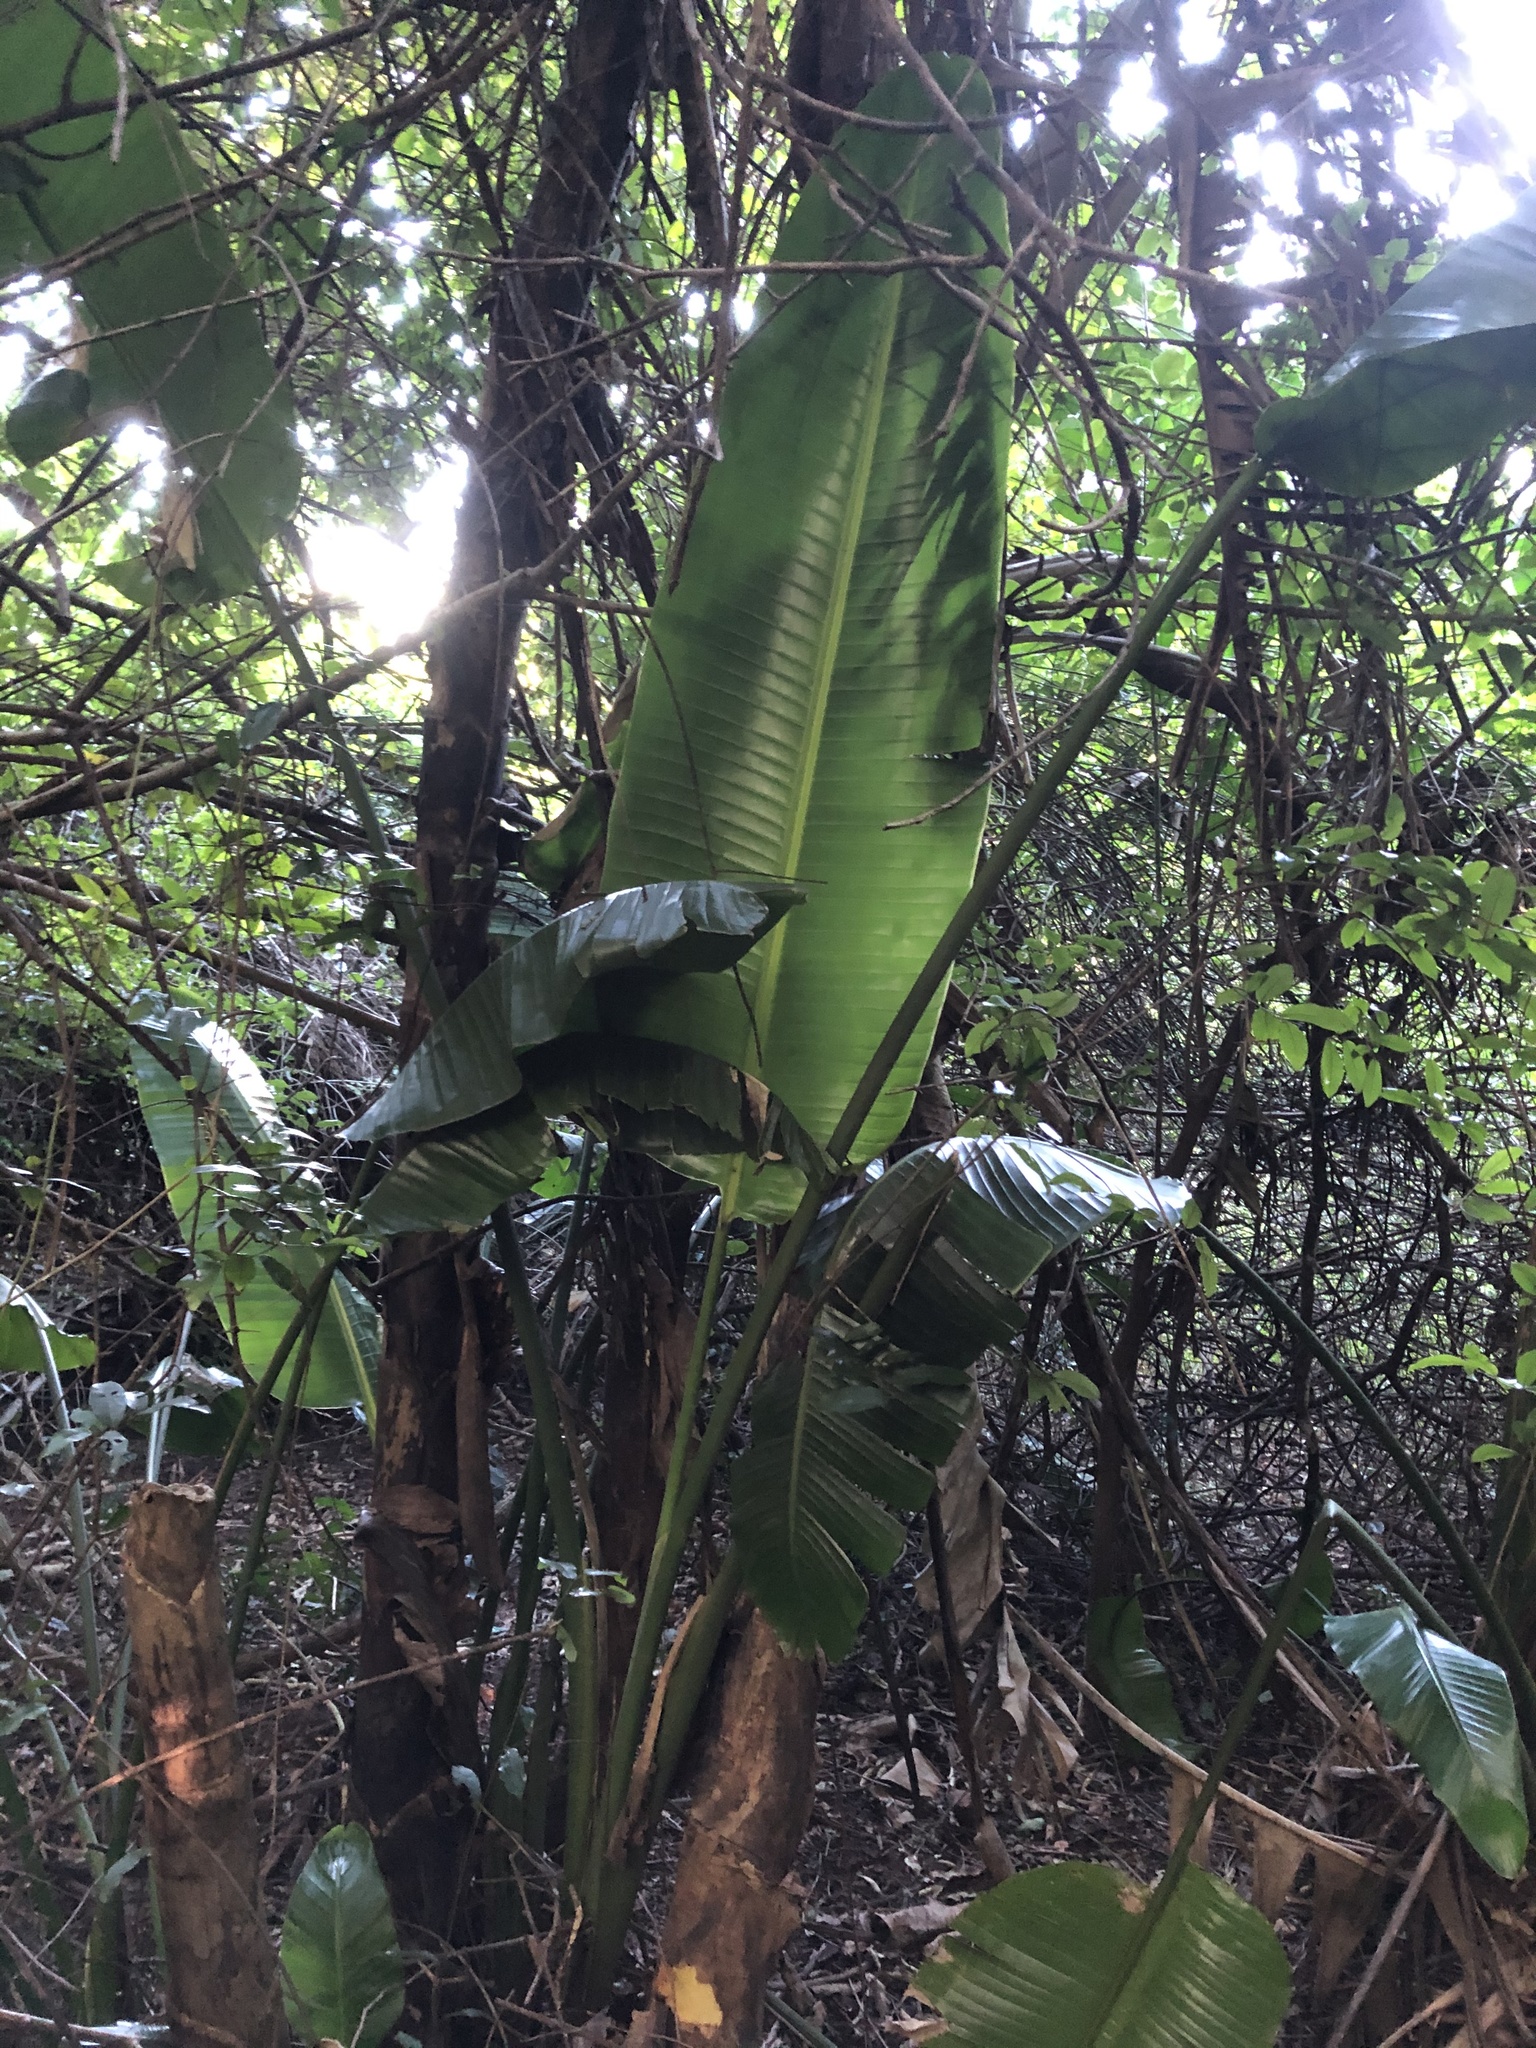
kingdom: Plantae
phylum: Tracheophyta
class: Liliopsida
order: Zingiberales
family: Strelitziaceae
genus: Strelitzia
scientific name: Strelitzia nicolai
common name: Bird-of-paradise tree
